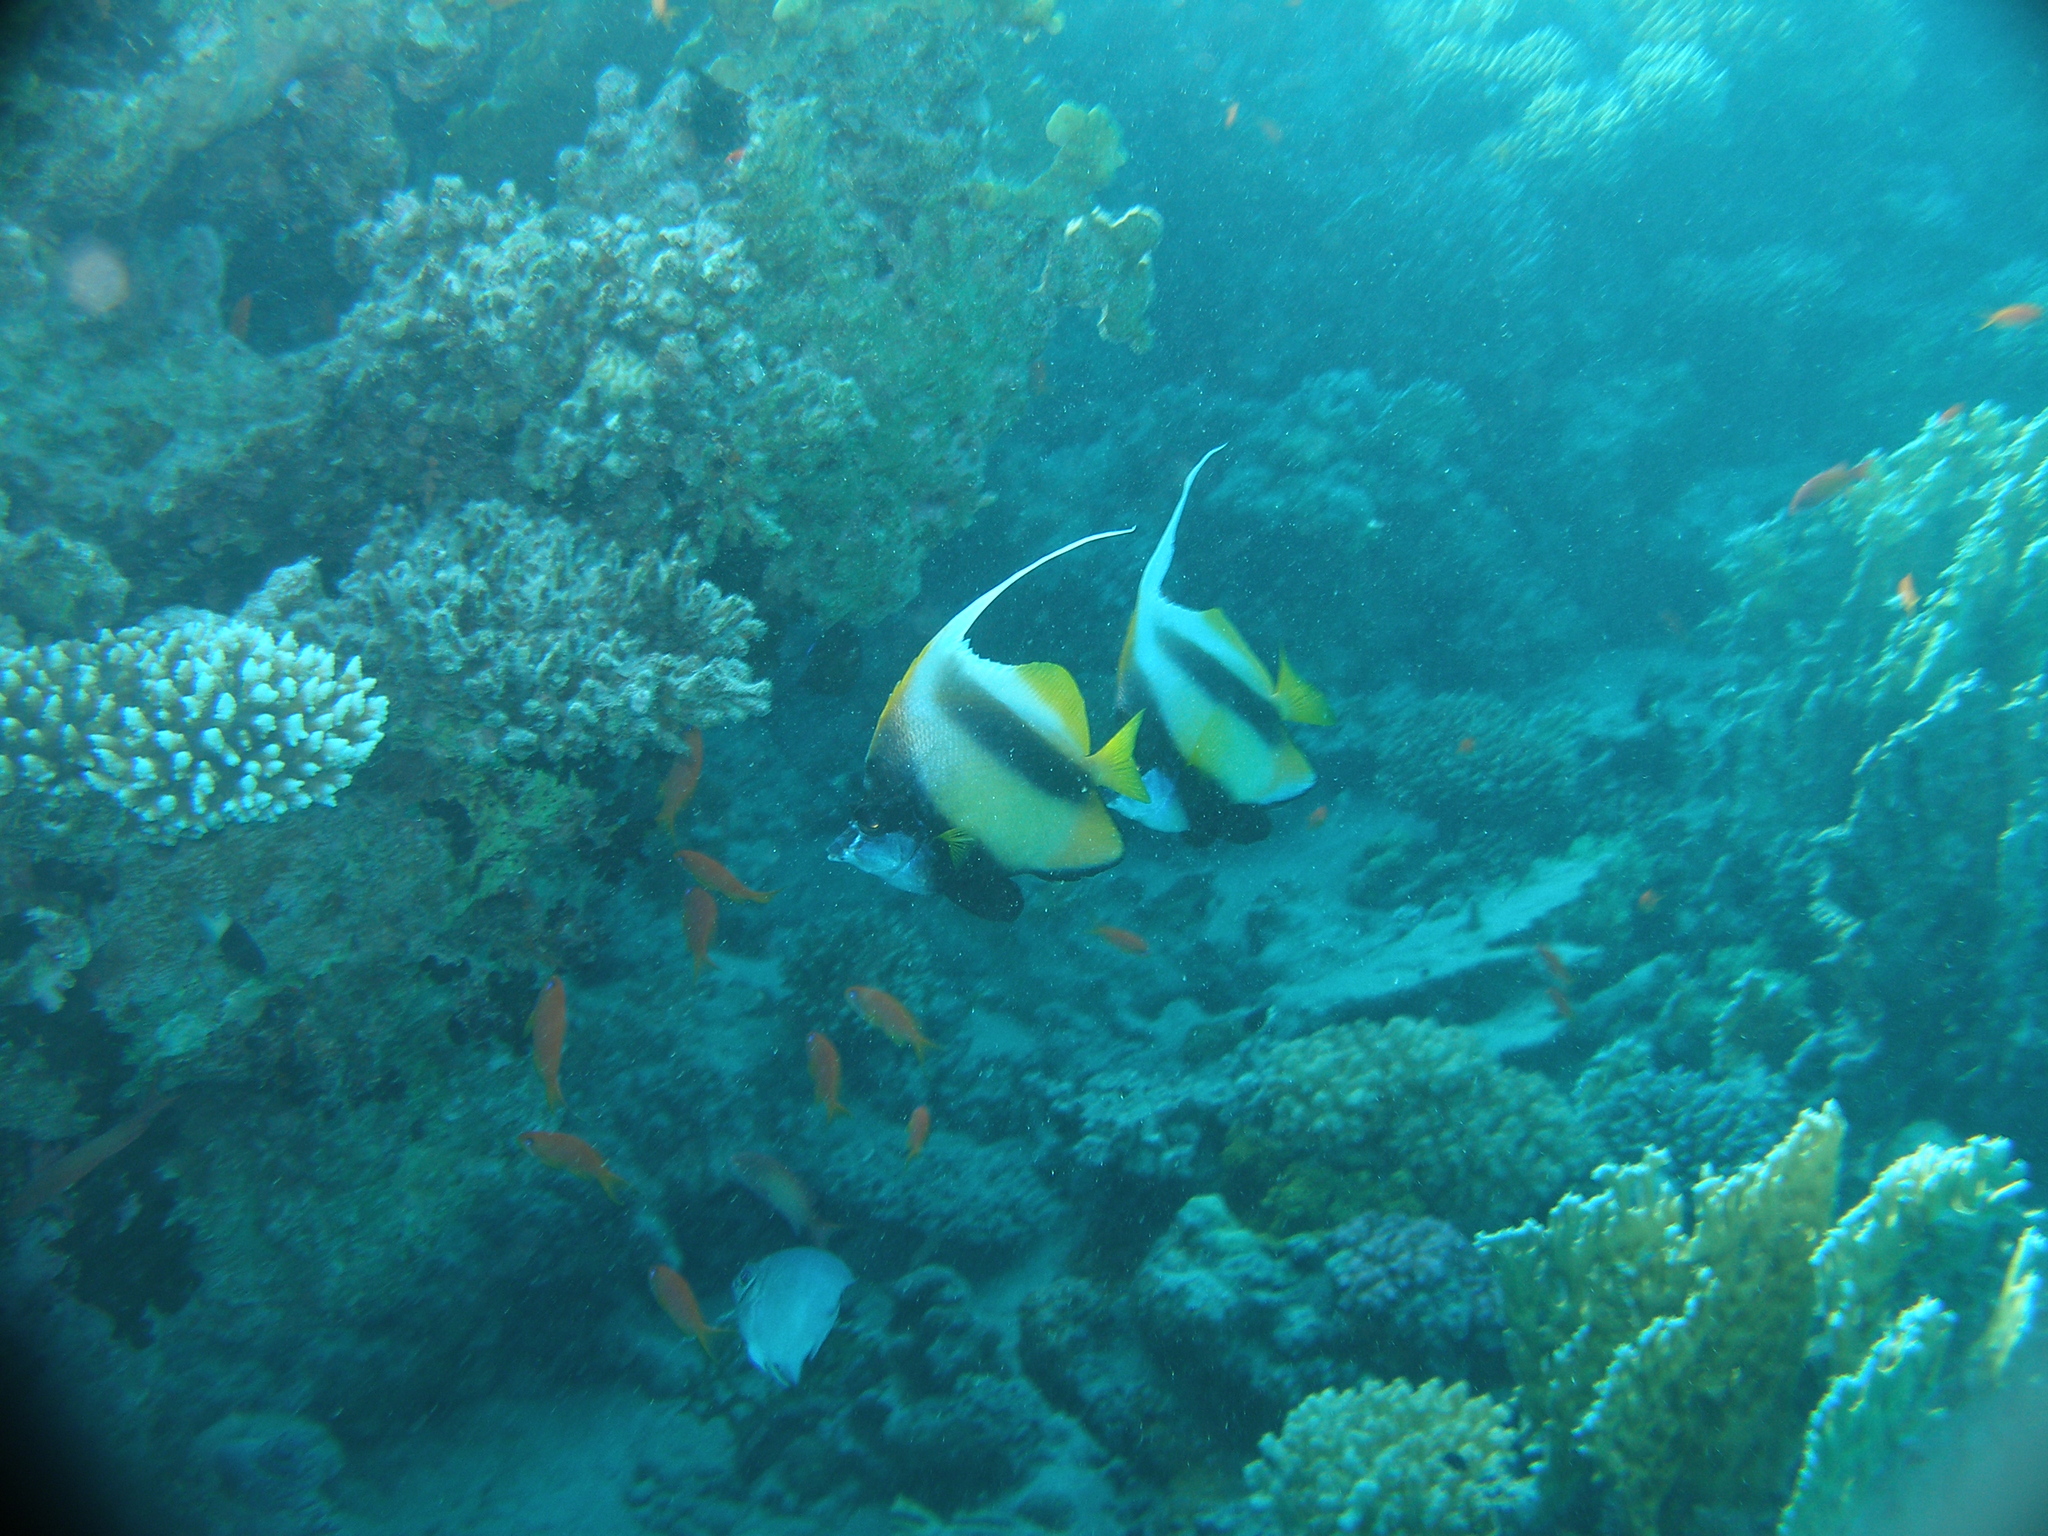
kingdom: Animalia
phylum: Chordata
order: Perciformes
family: Chaetodontidae
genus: Heniochus
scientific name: Heniochus intermedius
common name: Red sea bannerfish
